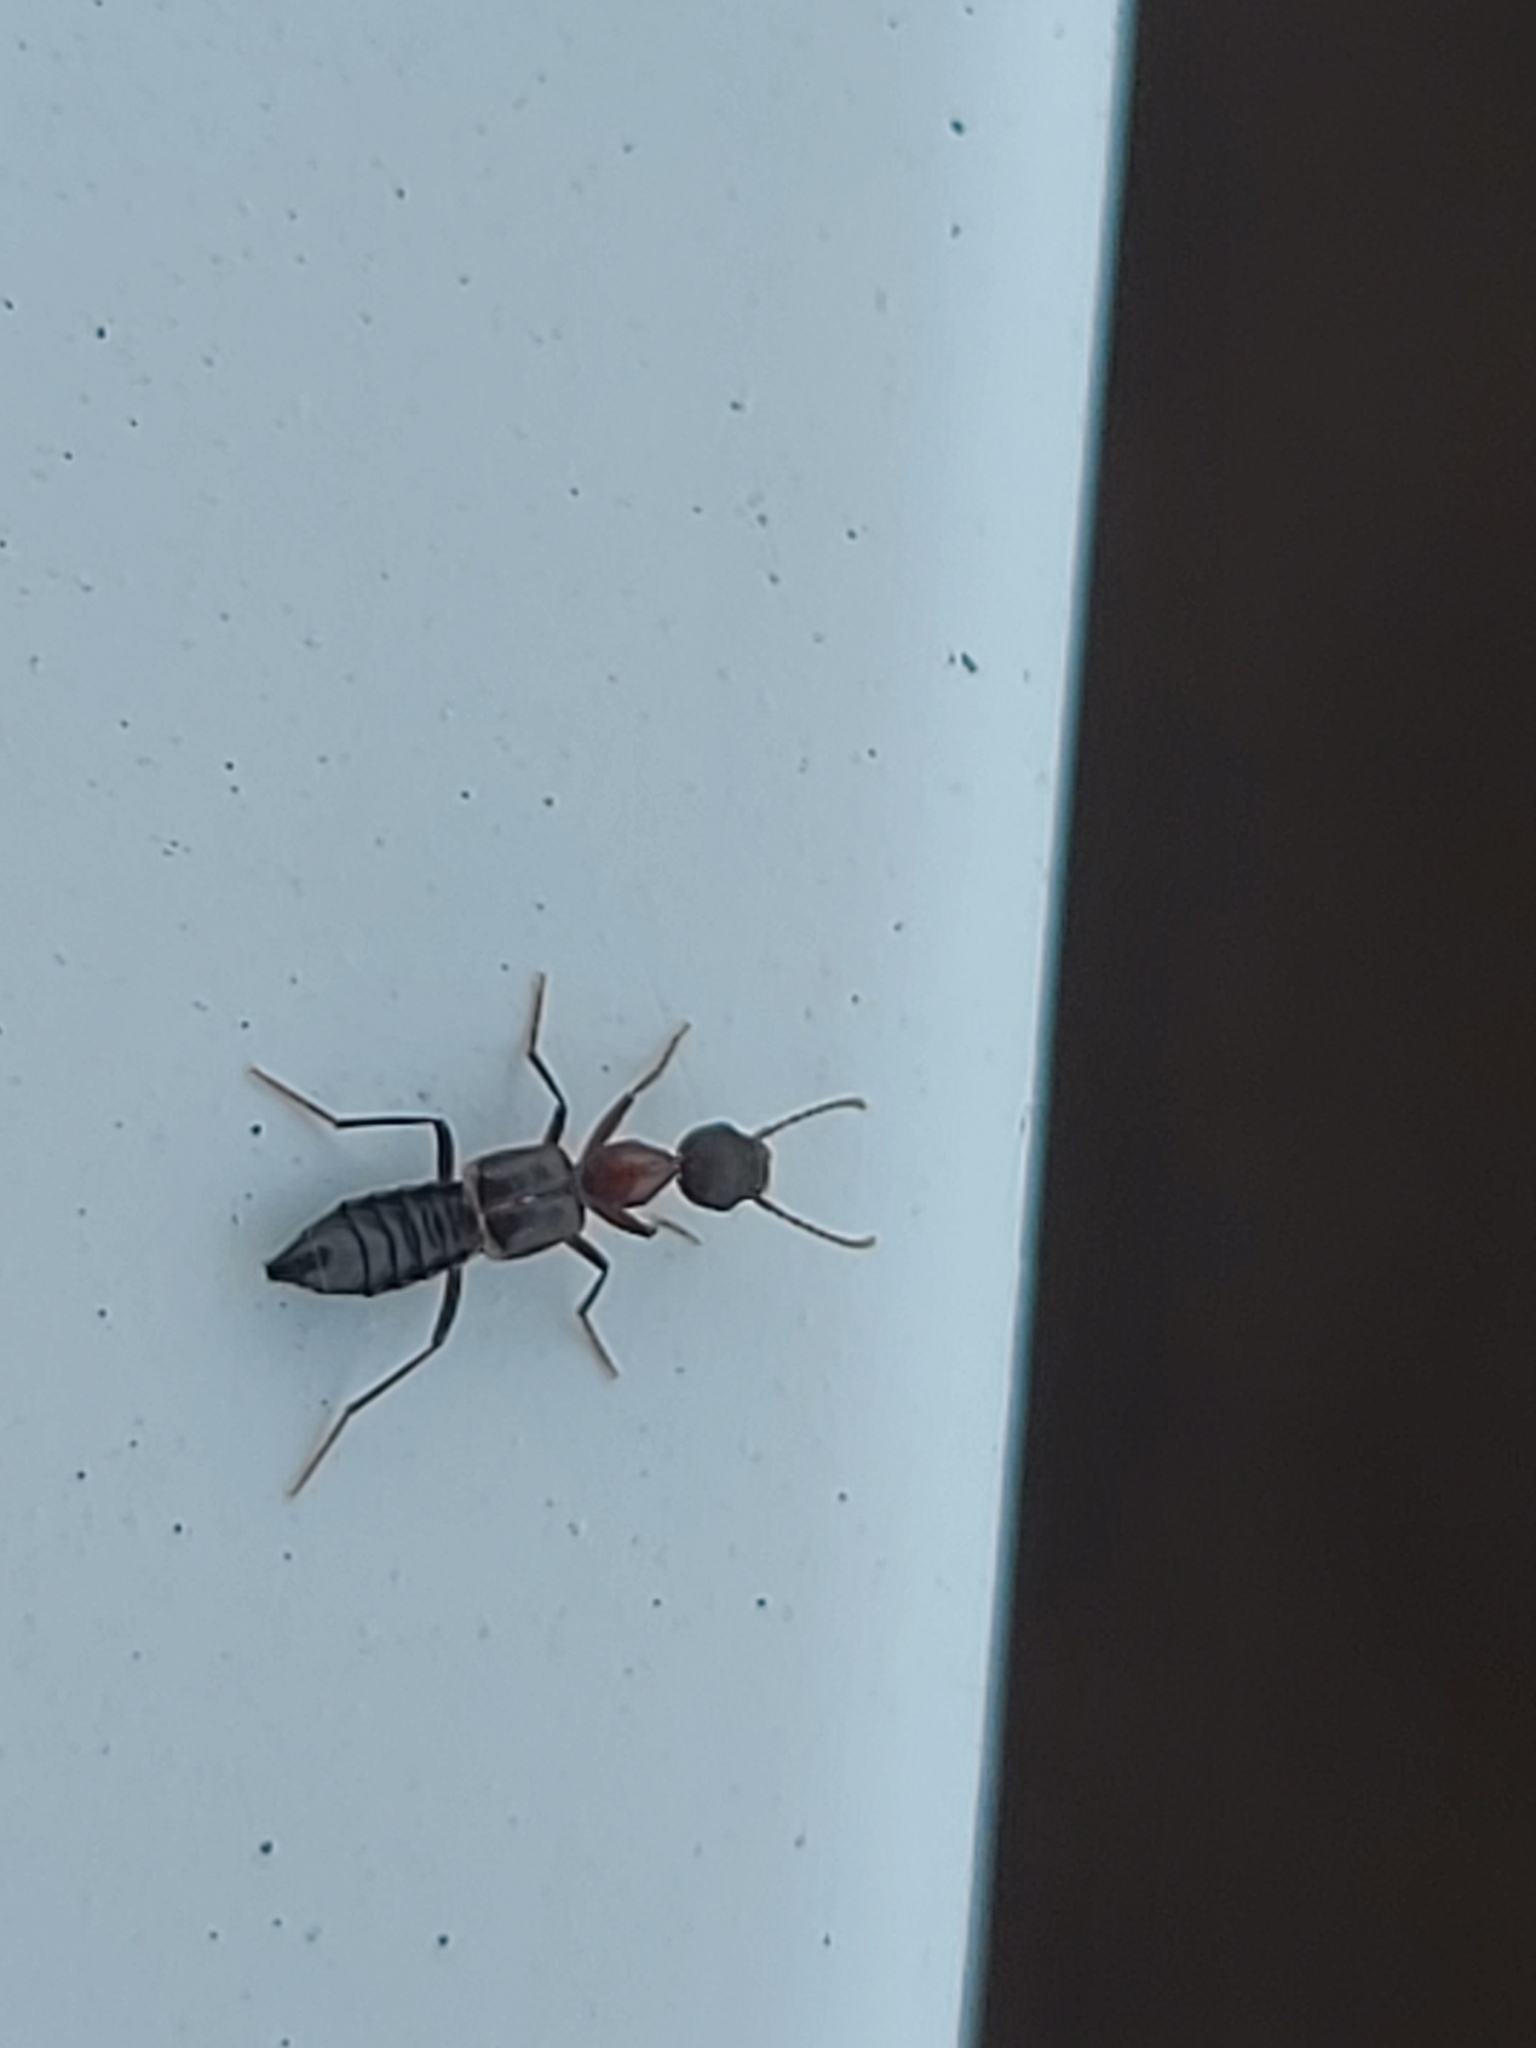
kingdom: Animalia
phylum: Arthropoda
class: Insecta
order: Coleoptera
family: Staphylinidae
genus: Rugilus
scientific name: Rugilus angustatus
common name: Staph beetle
